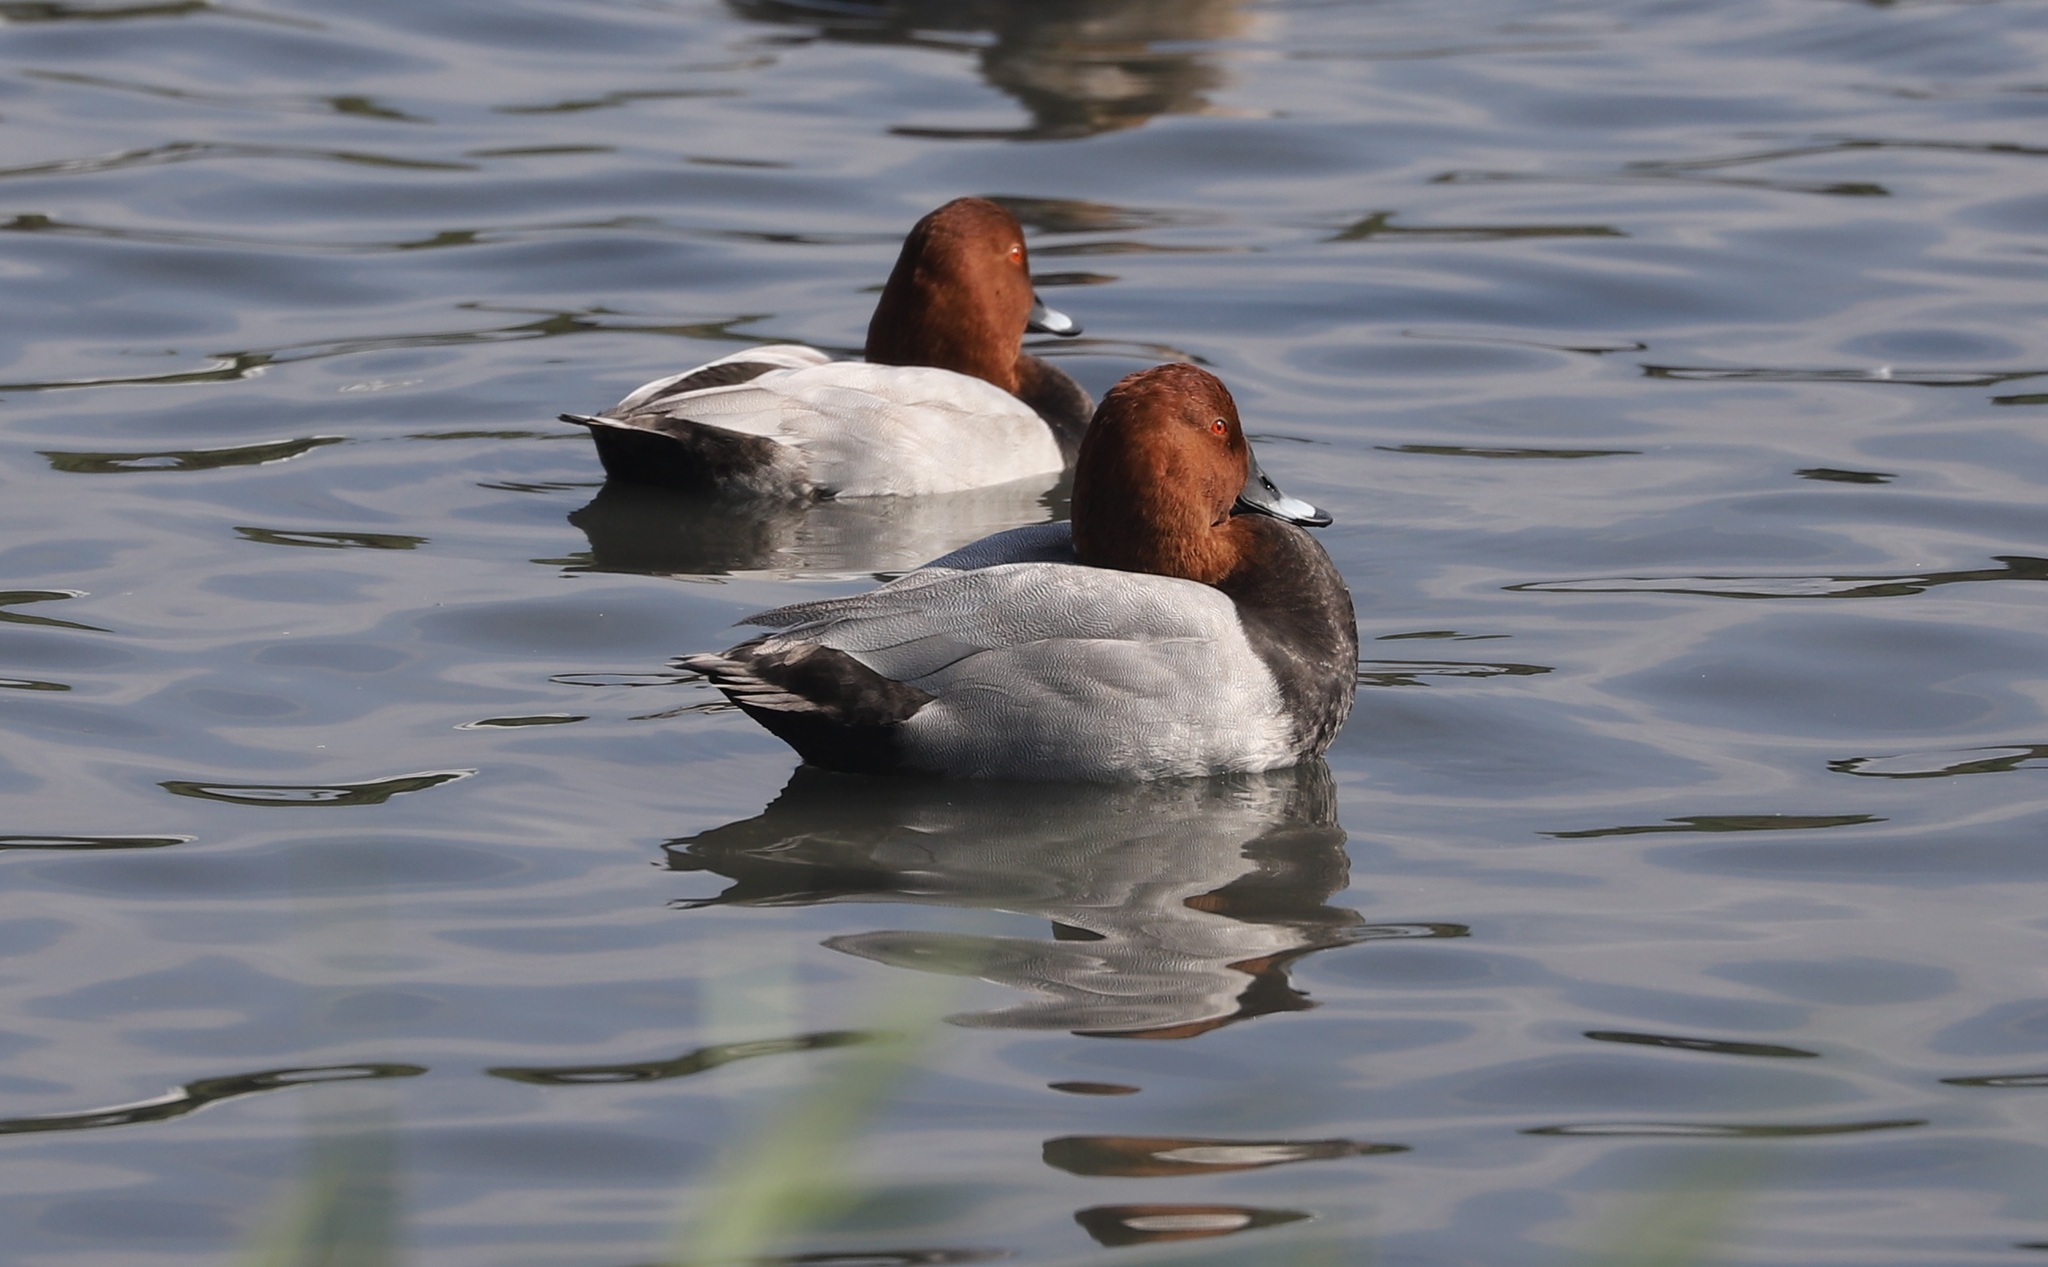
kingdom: Animalia
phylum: Chordata
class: Aves
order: Anseriformes
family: Anatidae
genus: Aythya
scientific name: Aythya ferina
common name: Common pochard
